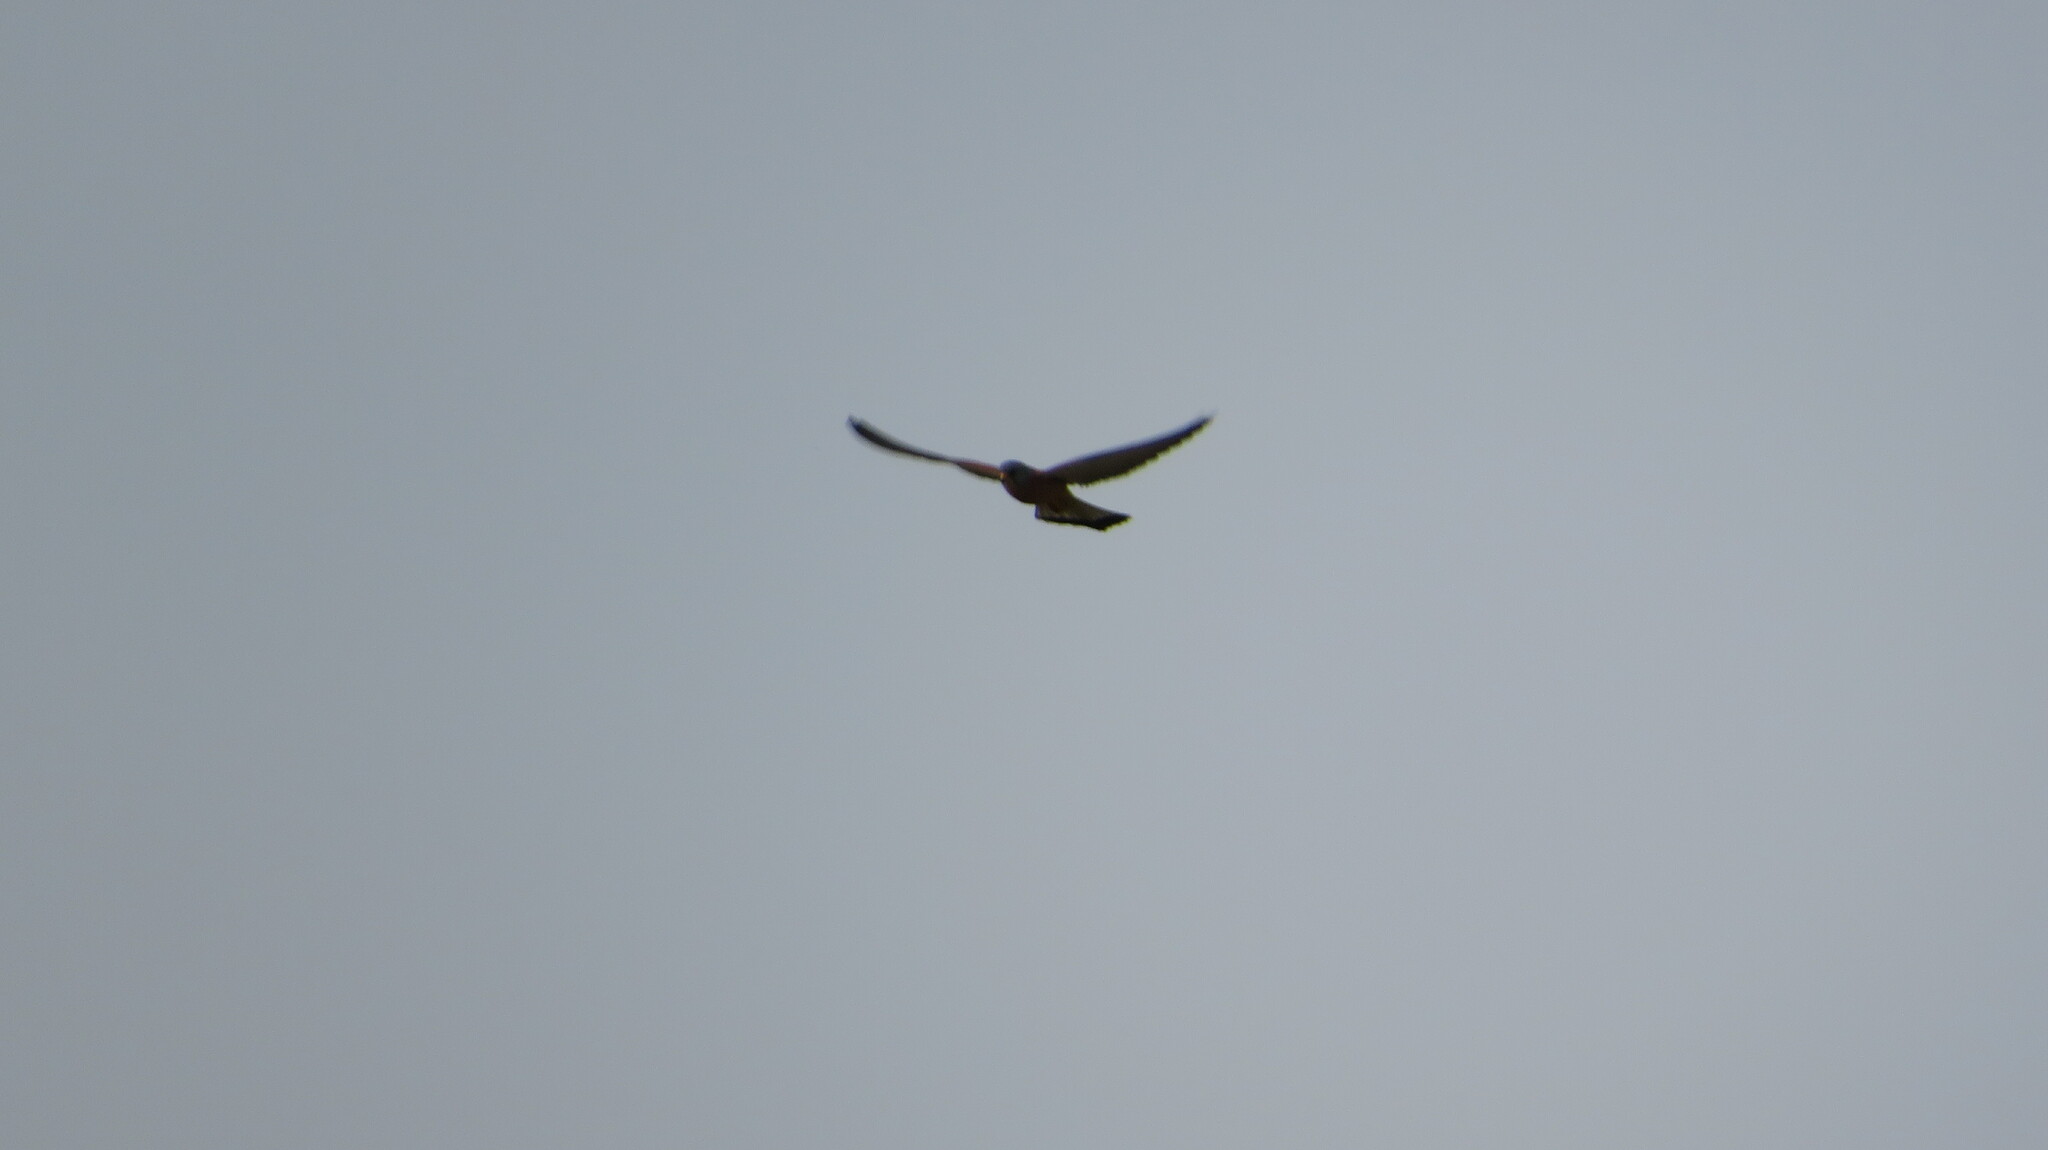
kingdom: Animalia
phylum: Chordata
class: Aves
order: Falconiformes
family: Falconidae
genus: Falco
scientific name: Falco tinnunculus
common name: Common kestrel
